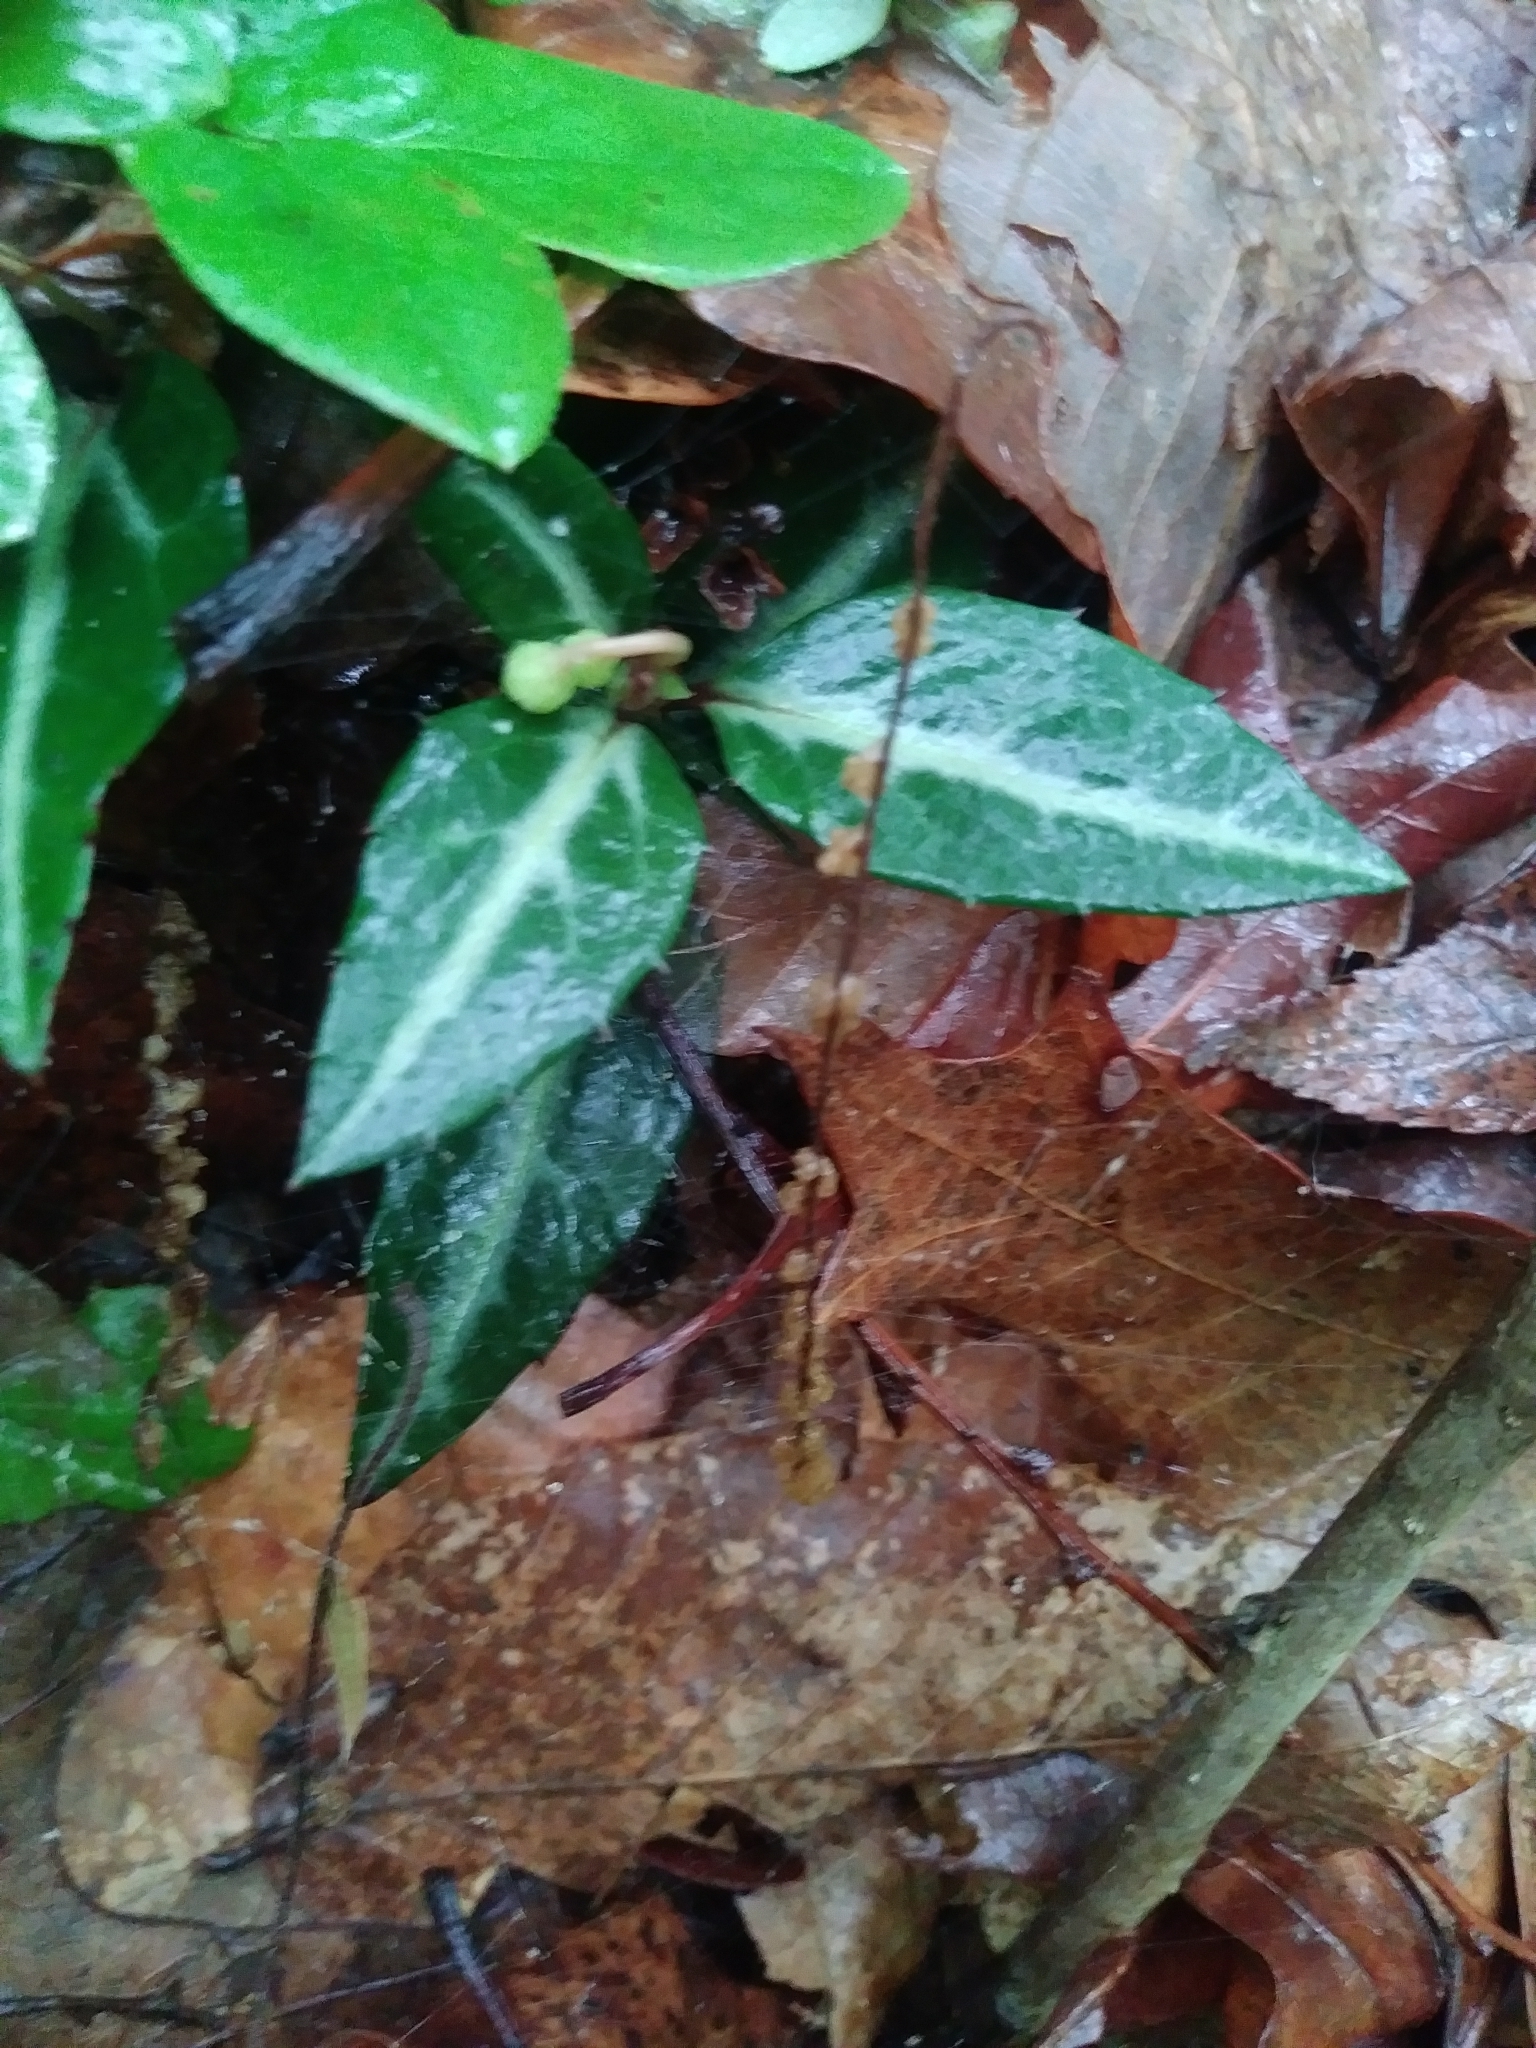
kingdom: Plantae
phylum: Tracheophyta
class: Magnoliopsida
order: Ericales
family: Ericaceae
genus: Chimaphila
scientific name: Chimaphila maculata
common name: Spotted pipsissewa
